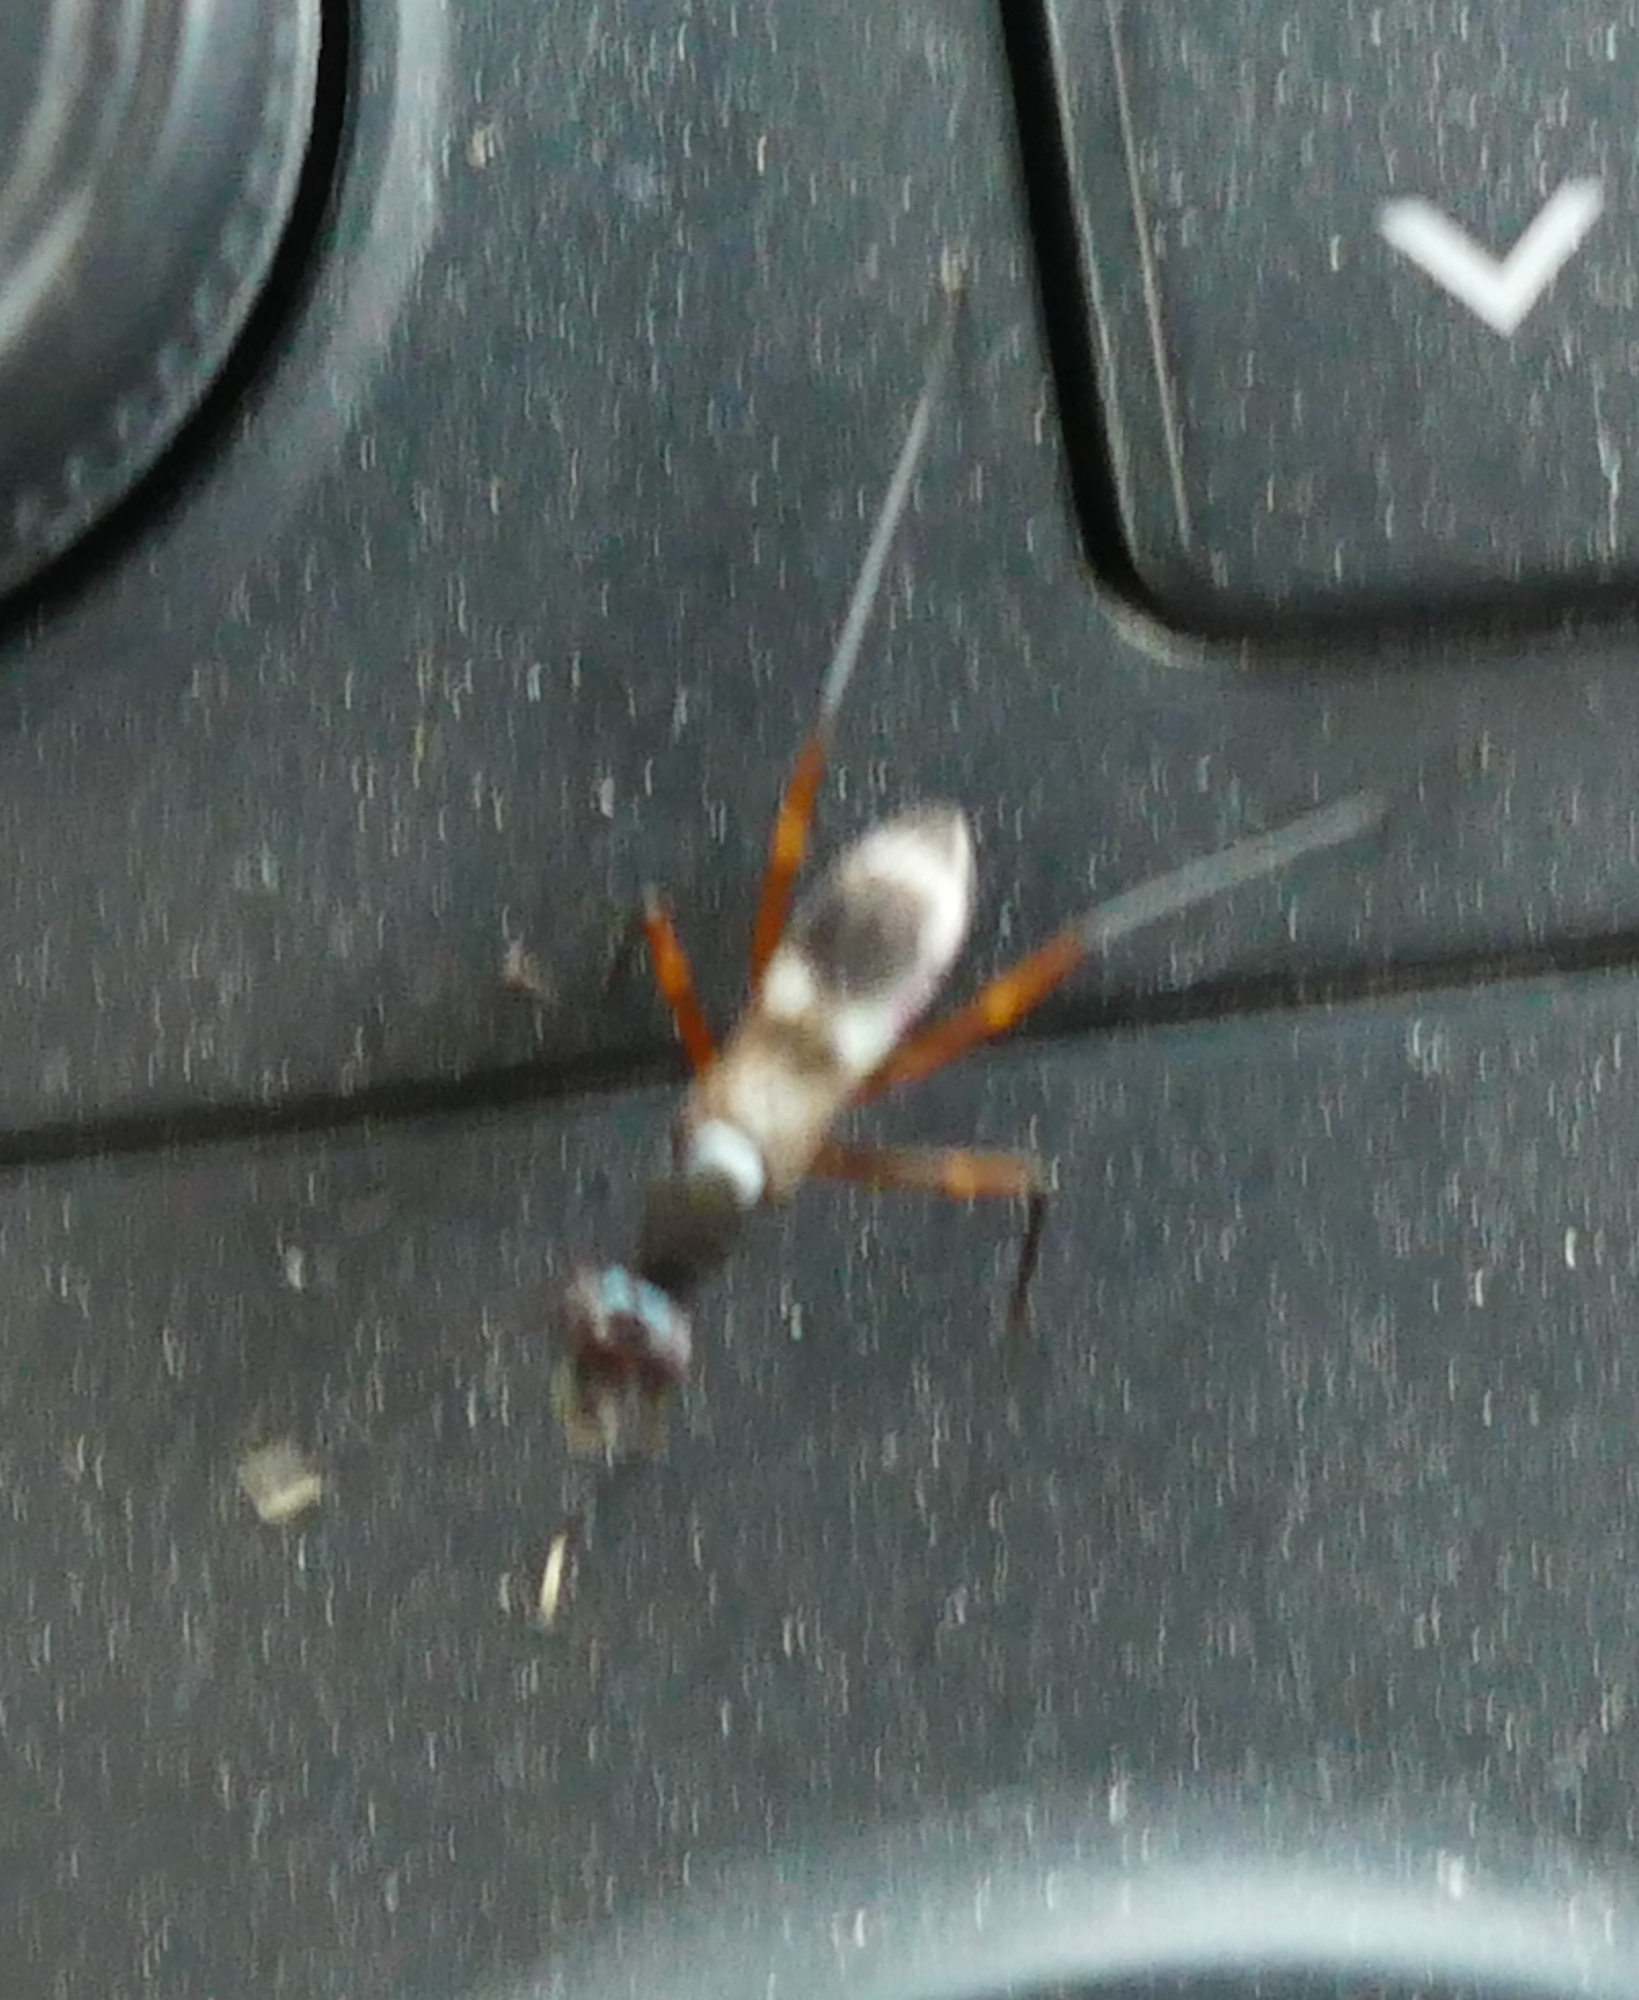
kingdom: Animalia
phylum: Arthropoda
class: Insecta
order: Diptera
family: Micropezidae
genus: Taeniaptera
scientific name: Taeniaptera trivittata
